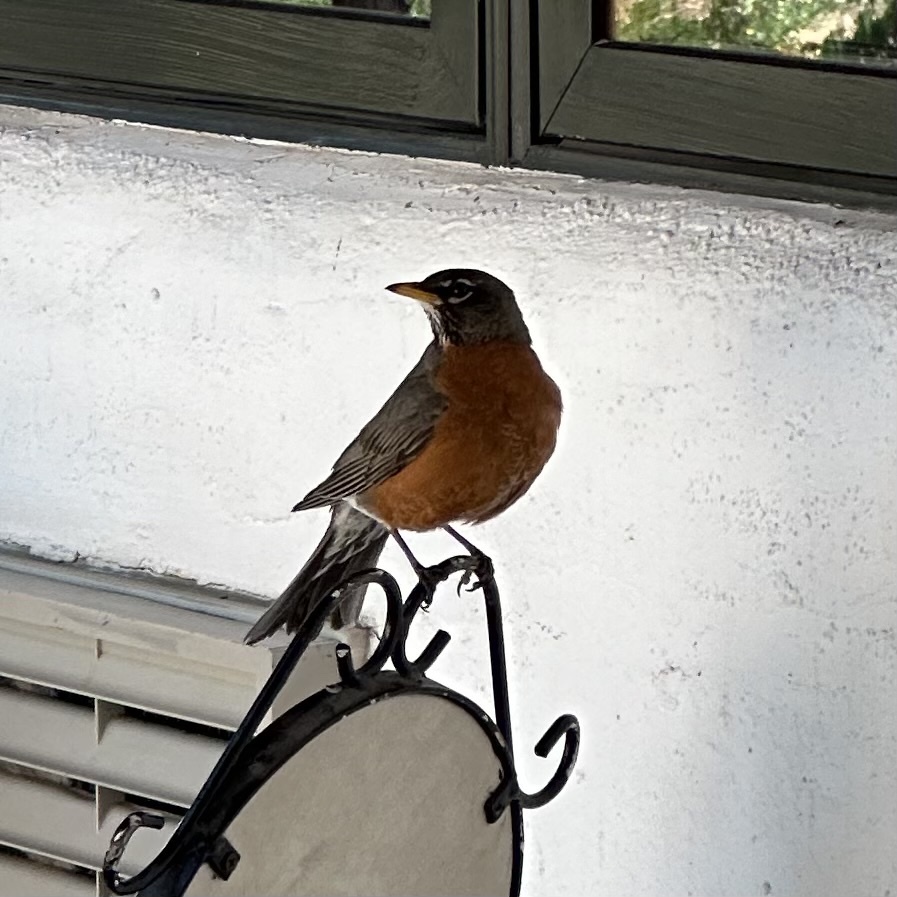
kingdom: Animalia
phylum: Chordata
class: Aves
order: Passeriformes
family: Turdidae
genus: Turdus
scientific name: Turdus migratorius
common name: American robin
